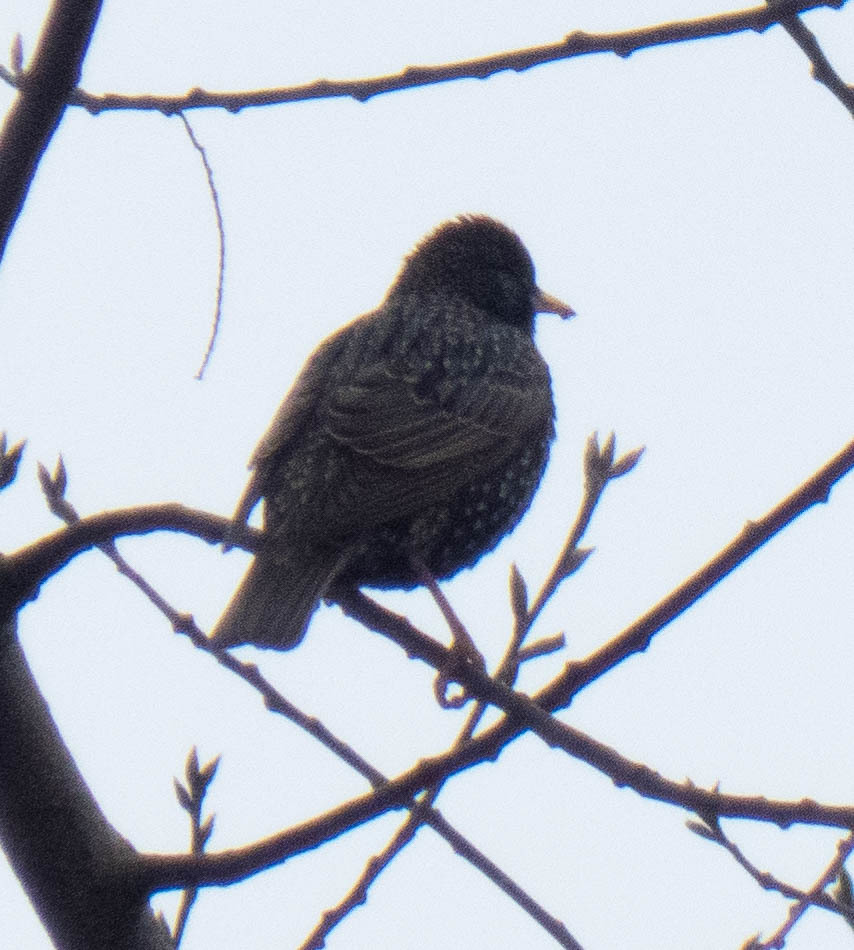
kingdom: Animalia
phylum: Chordata
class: Aves
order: Passeriformes
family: Sturnidae
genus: Sturnus
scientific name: Sturnus vulgaris
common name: Common starling
